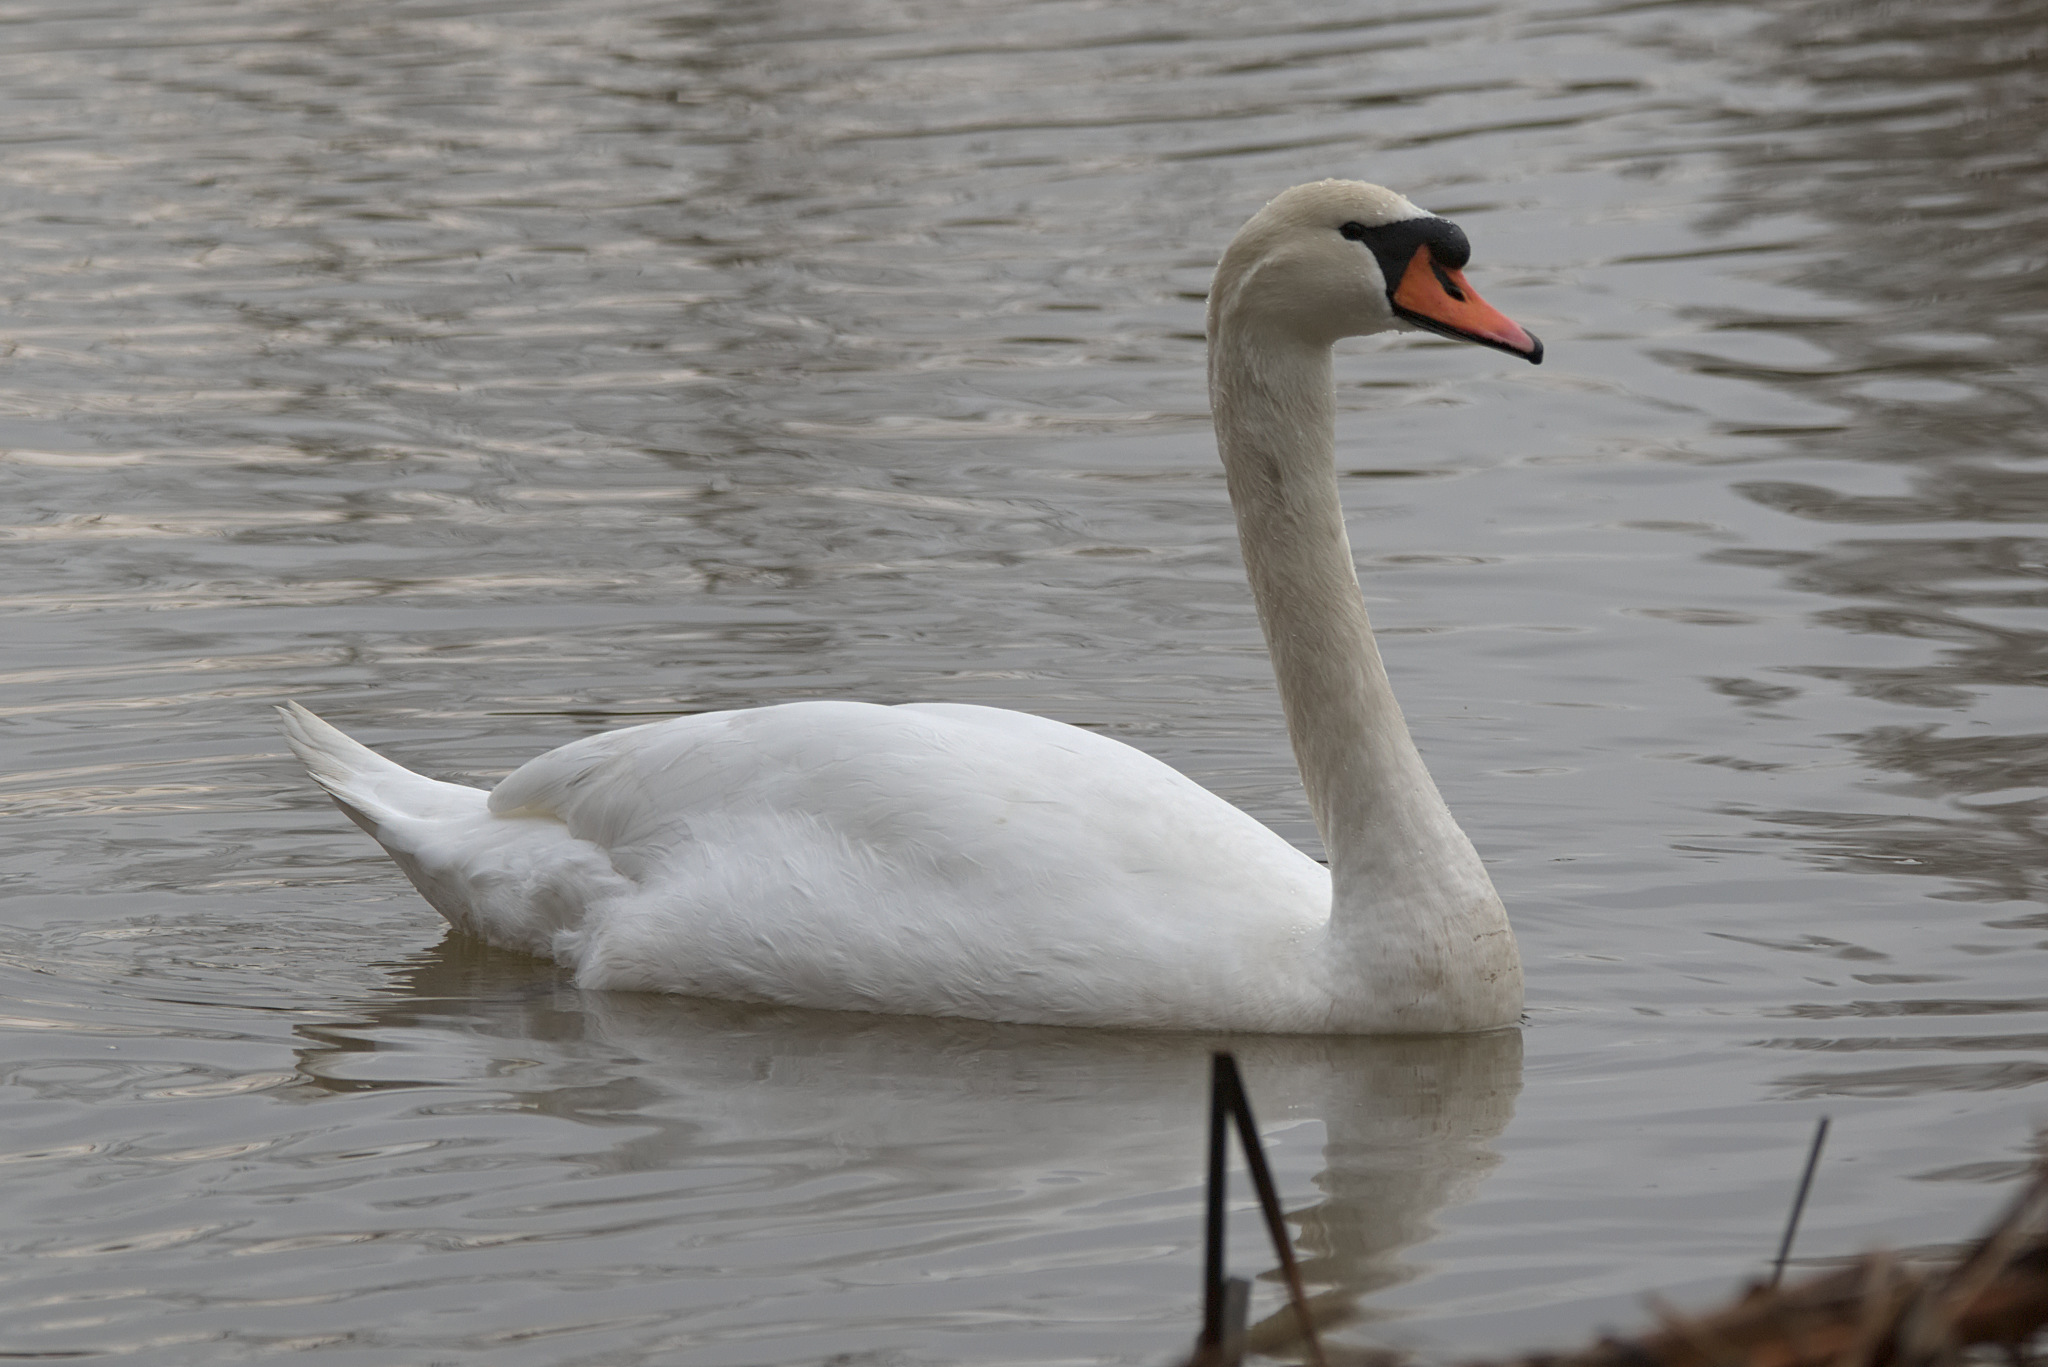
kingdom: Animalia
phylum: Chordata
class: Aves
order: Anseriformes
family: Anatidae
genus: Cygnus
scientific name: Cygnus olor
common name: Mute swan
